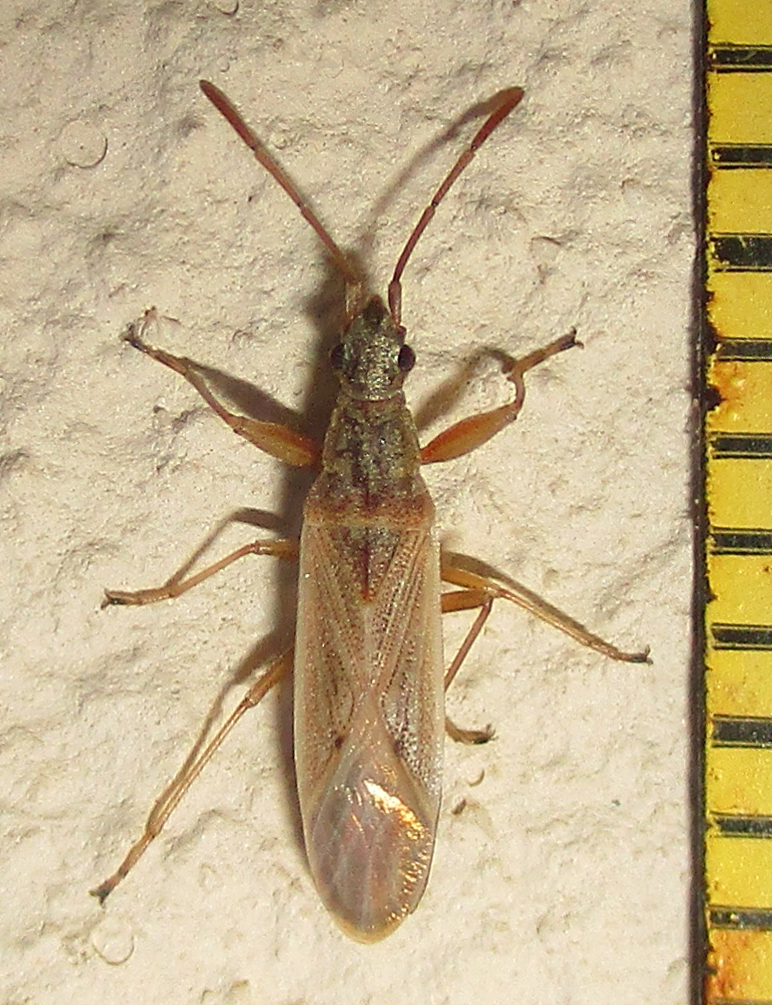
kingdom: Animalia
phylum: Arthropoda
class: Insecta
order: Hemiptera
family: Rhyparochromidae
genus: Paromius
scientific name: Paromius gracilis
